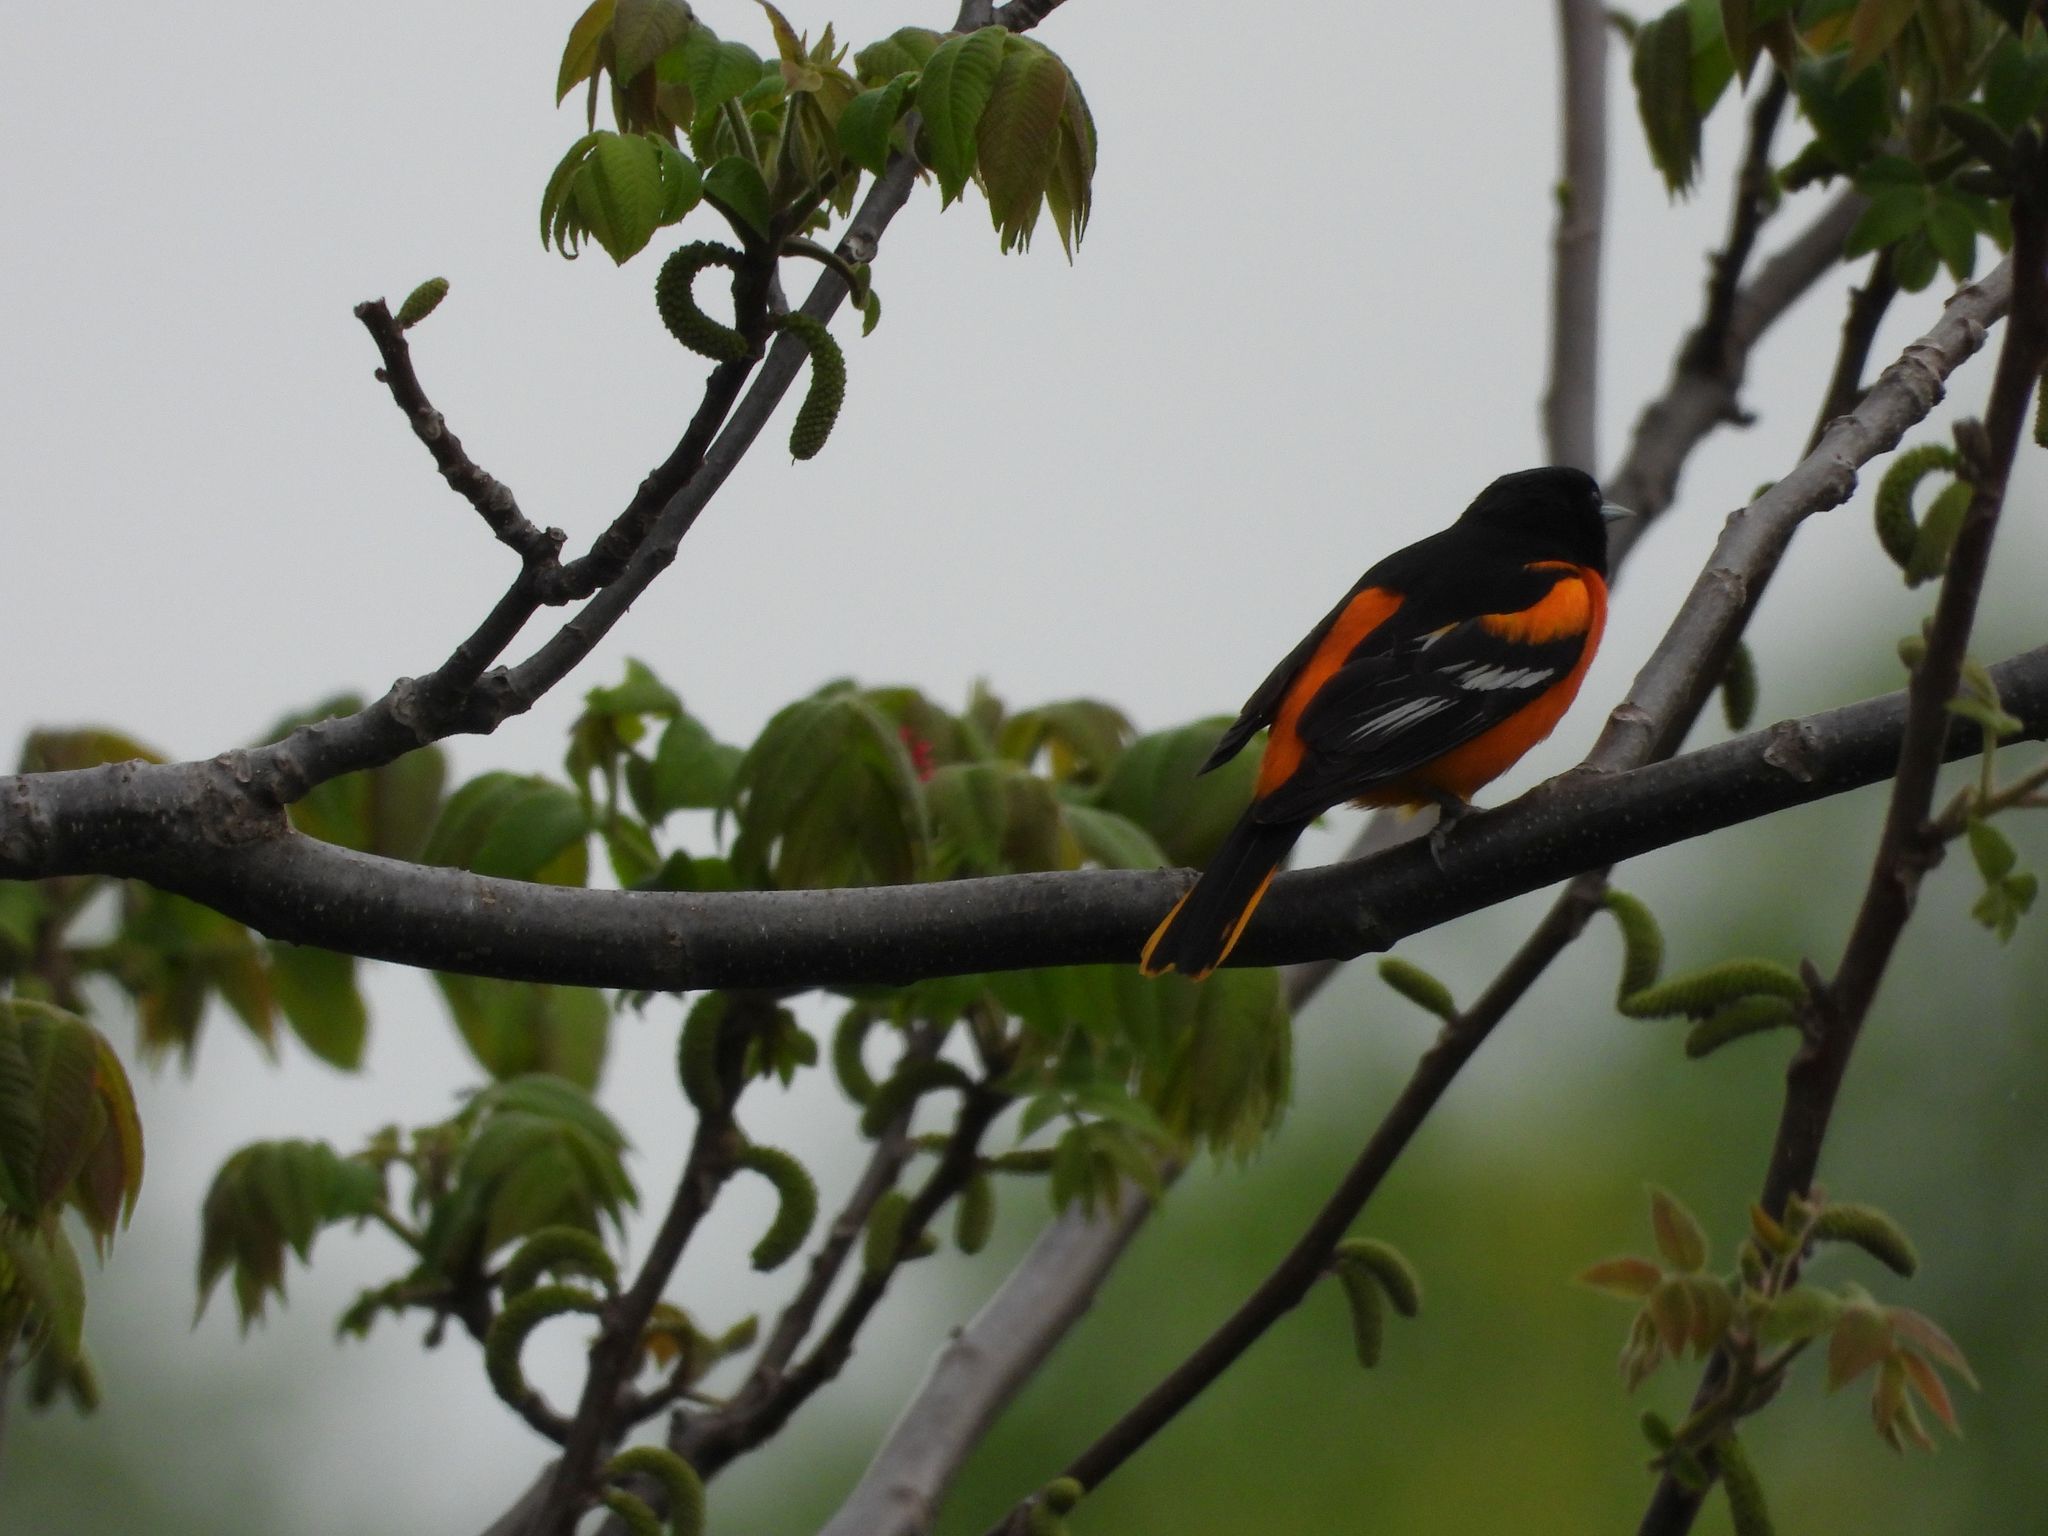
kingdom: Animalia
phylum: Chordata
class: Aves
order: Passeriformes
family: Icteridae
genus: Icterus
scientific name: Icterus galbula
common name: Baltimore oriole
